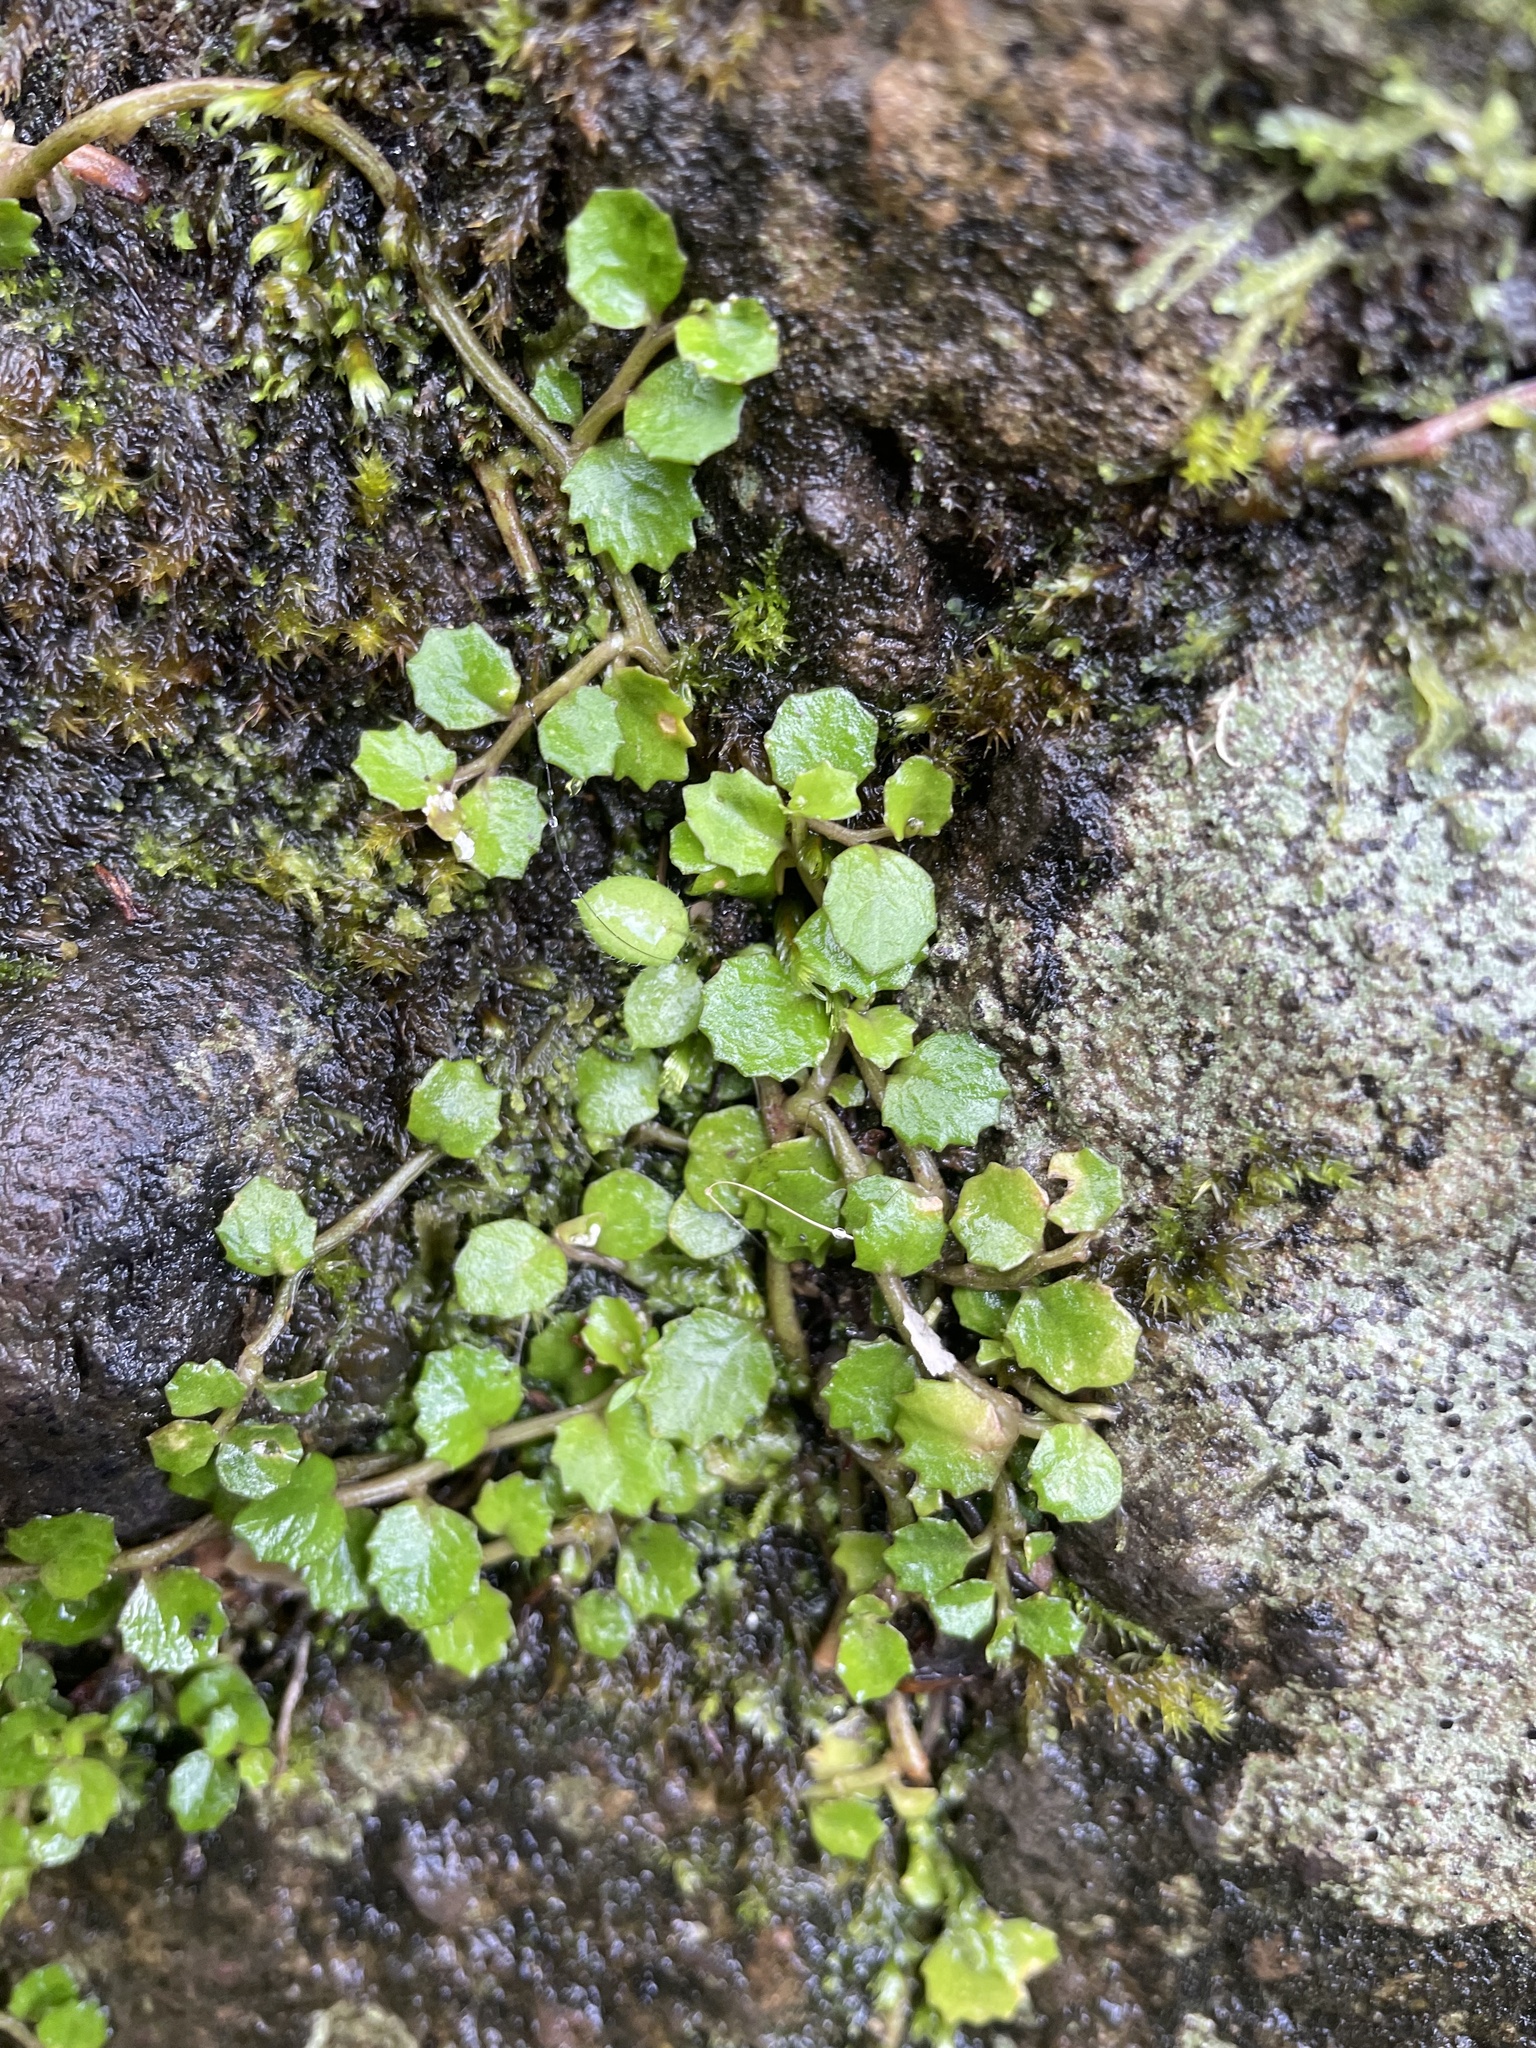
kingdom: Plantae
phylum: Tracheophyta
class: Magnoliopsida
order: Asterales
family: Campanulaceae
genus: Lobelia
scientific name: Lobelia angulata
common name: Lawn lobelia
